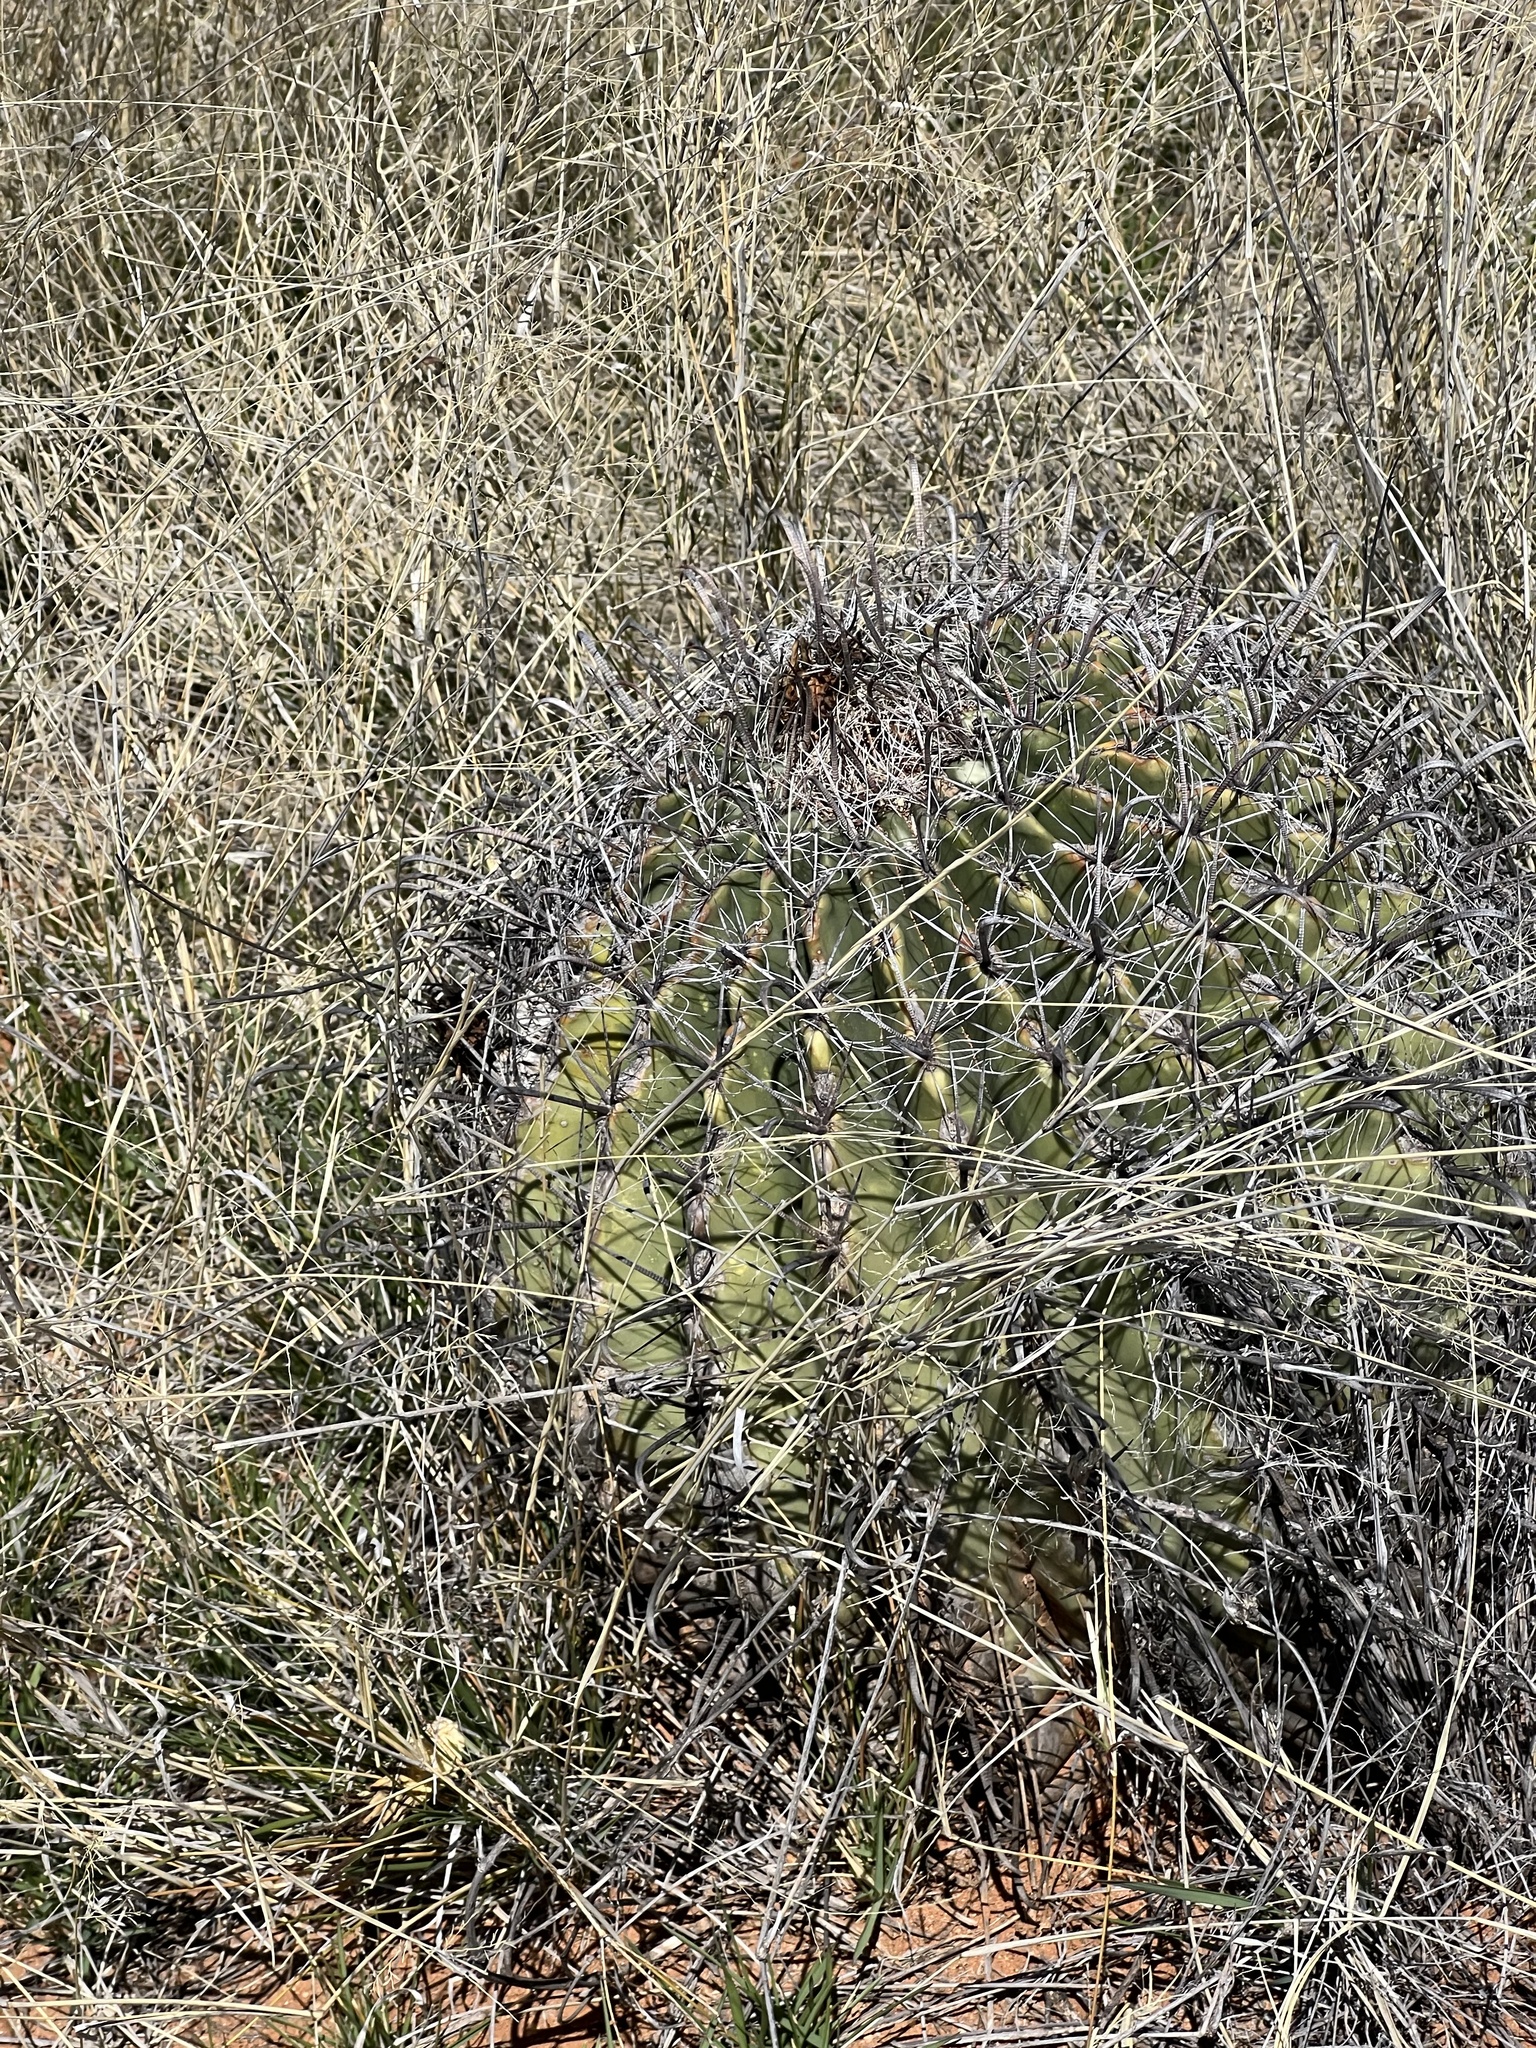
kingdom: Plantae
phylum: Tracheophyta
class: Magnoliopsida
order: Caryophyllales
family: Cactaceae
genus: Ferocactus
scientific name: Ferocactus wislizeni
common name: Candy barrel cactus
